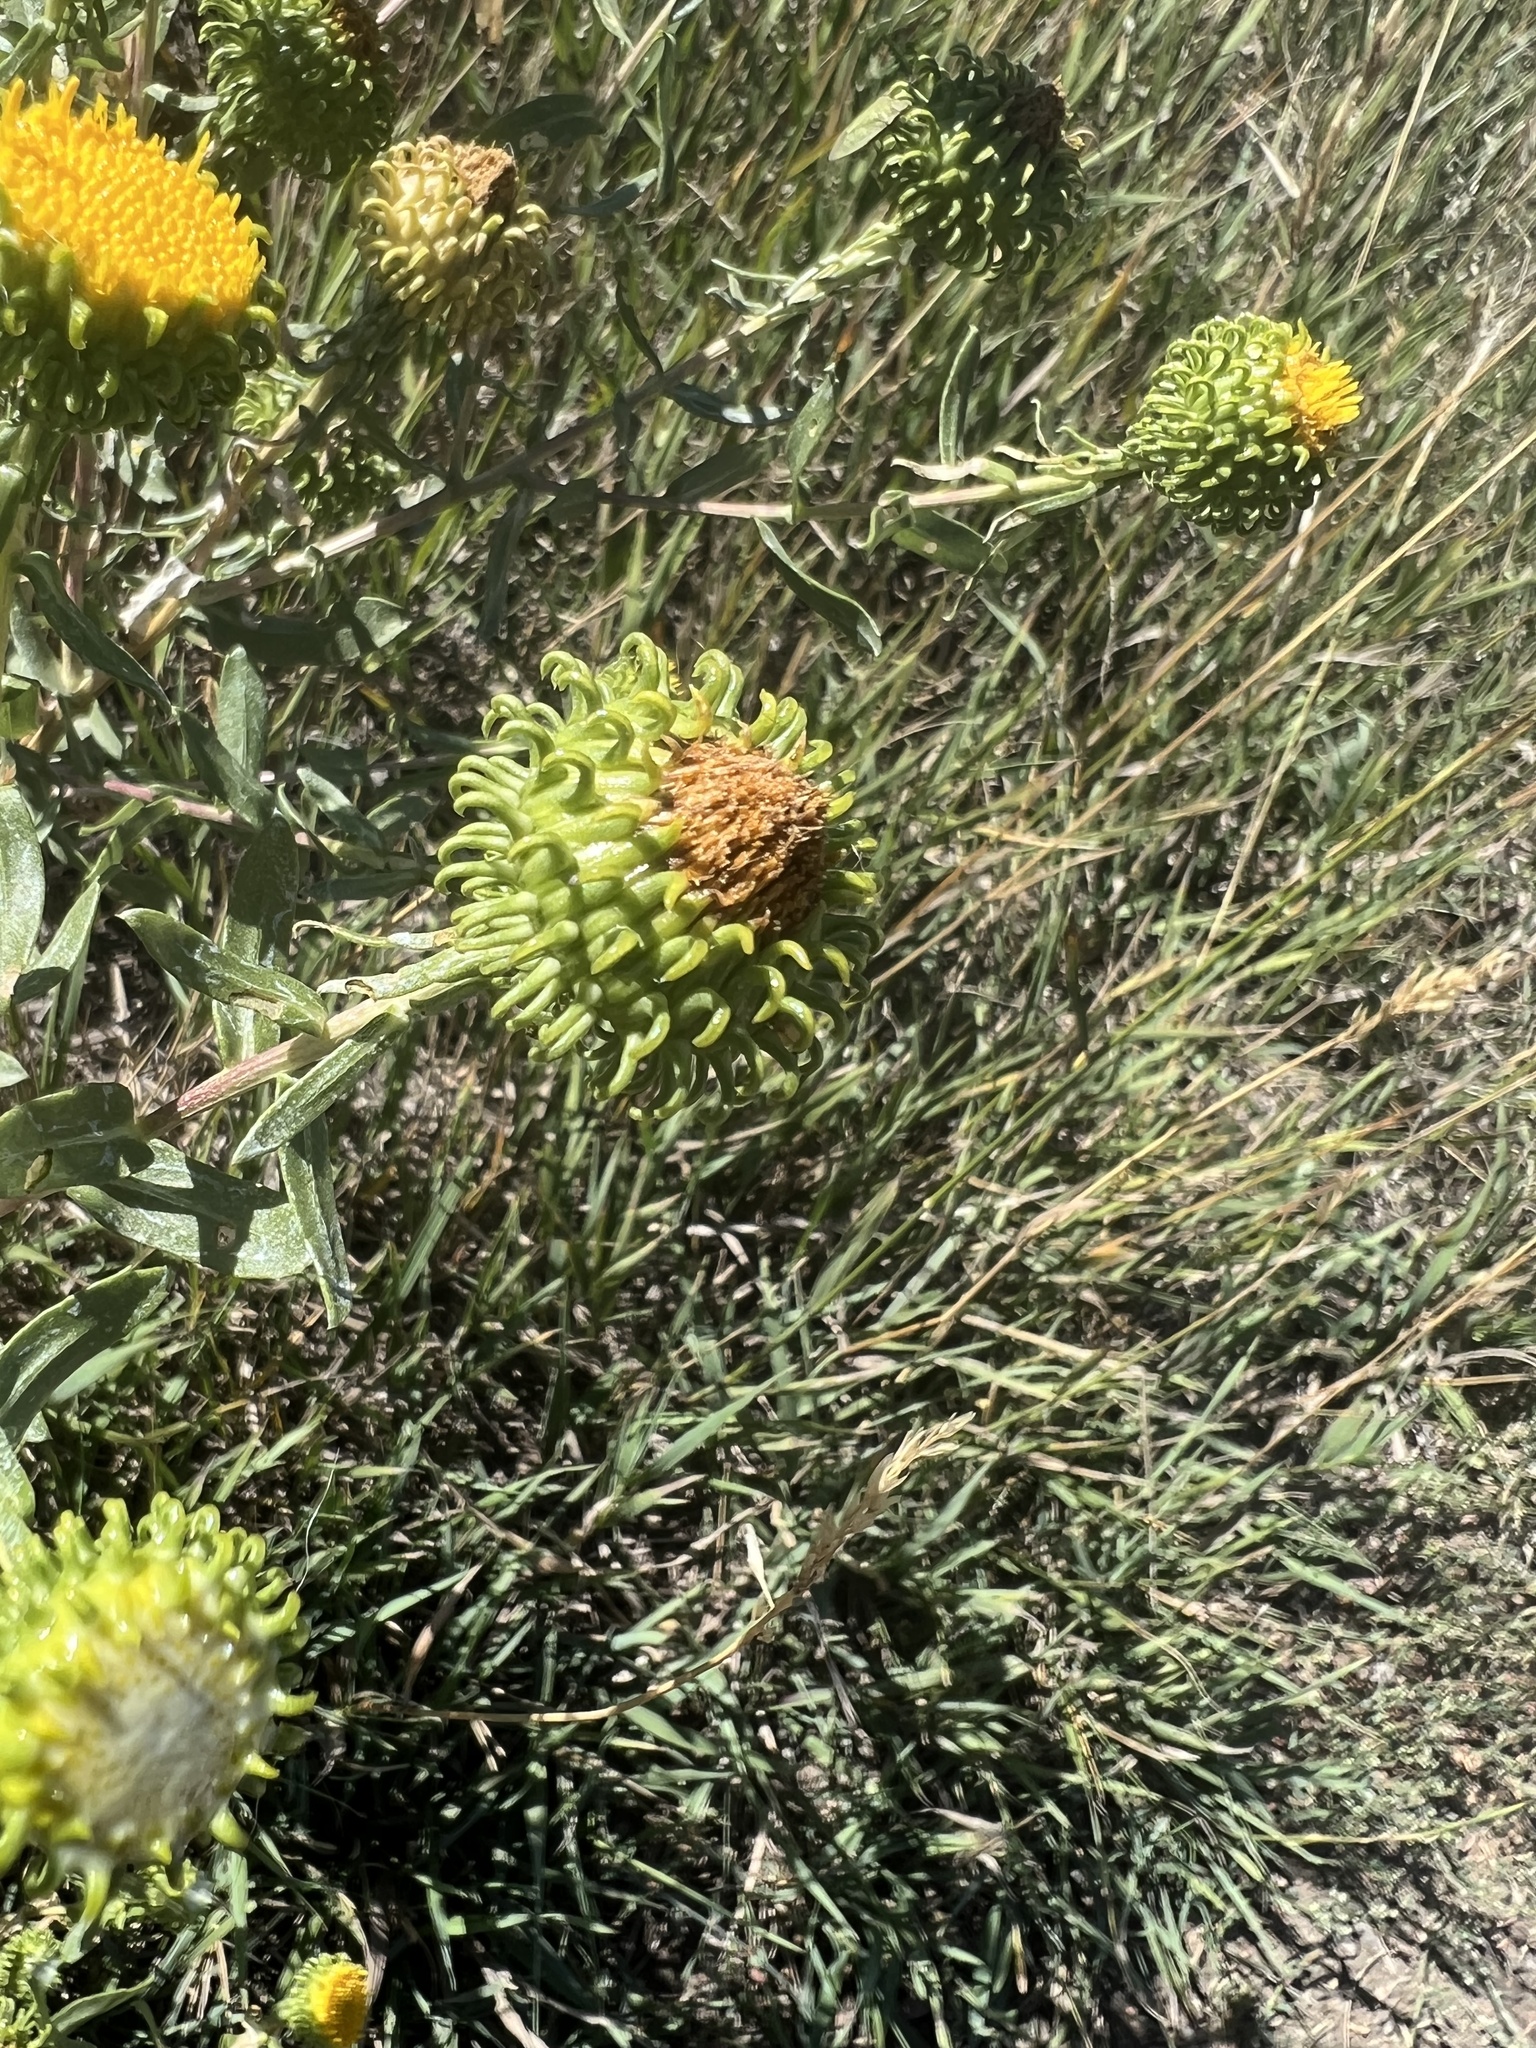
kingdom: Plantae
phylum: Tracheophyta
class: Magnoliopsida
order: Asterales
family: Asteraceae
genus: Grindelia
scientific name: Grindelia squarrosa
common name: Curly-cup gumweed
